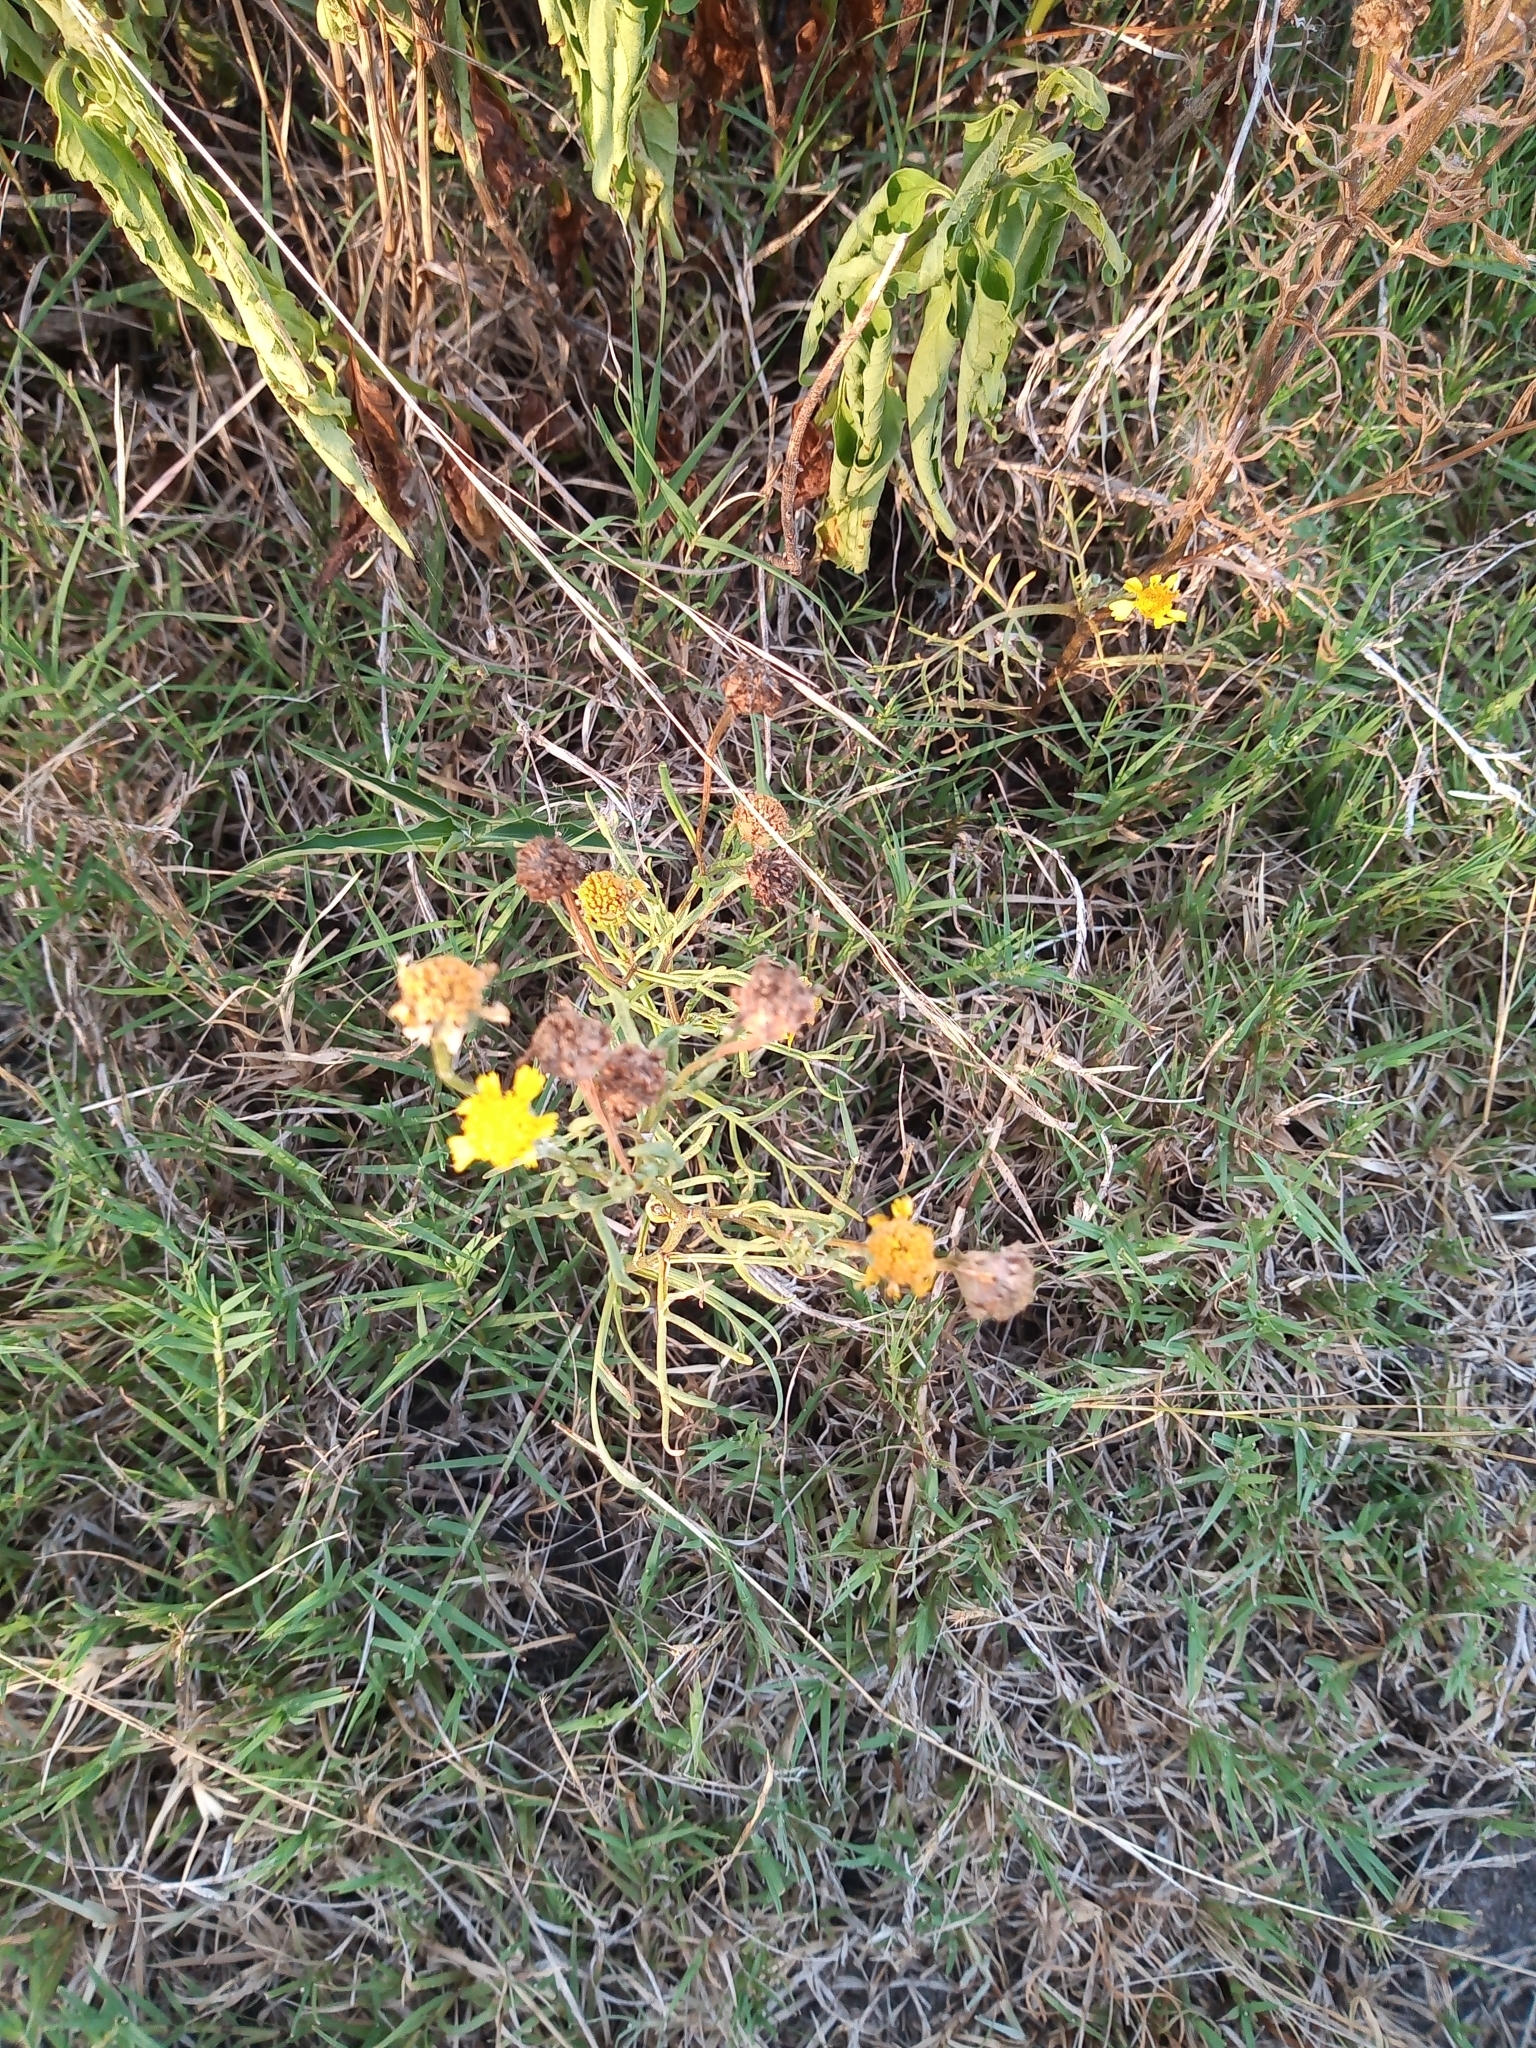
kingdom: Plantae
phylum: Tracheophyta
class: Magnoliopsida
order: Asterales
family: Asteraceae
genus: Hymenoxys
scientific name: Hymenoxys megapotamica
